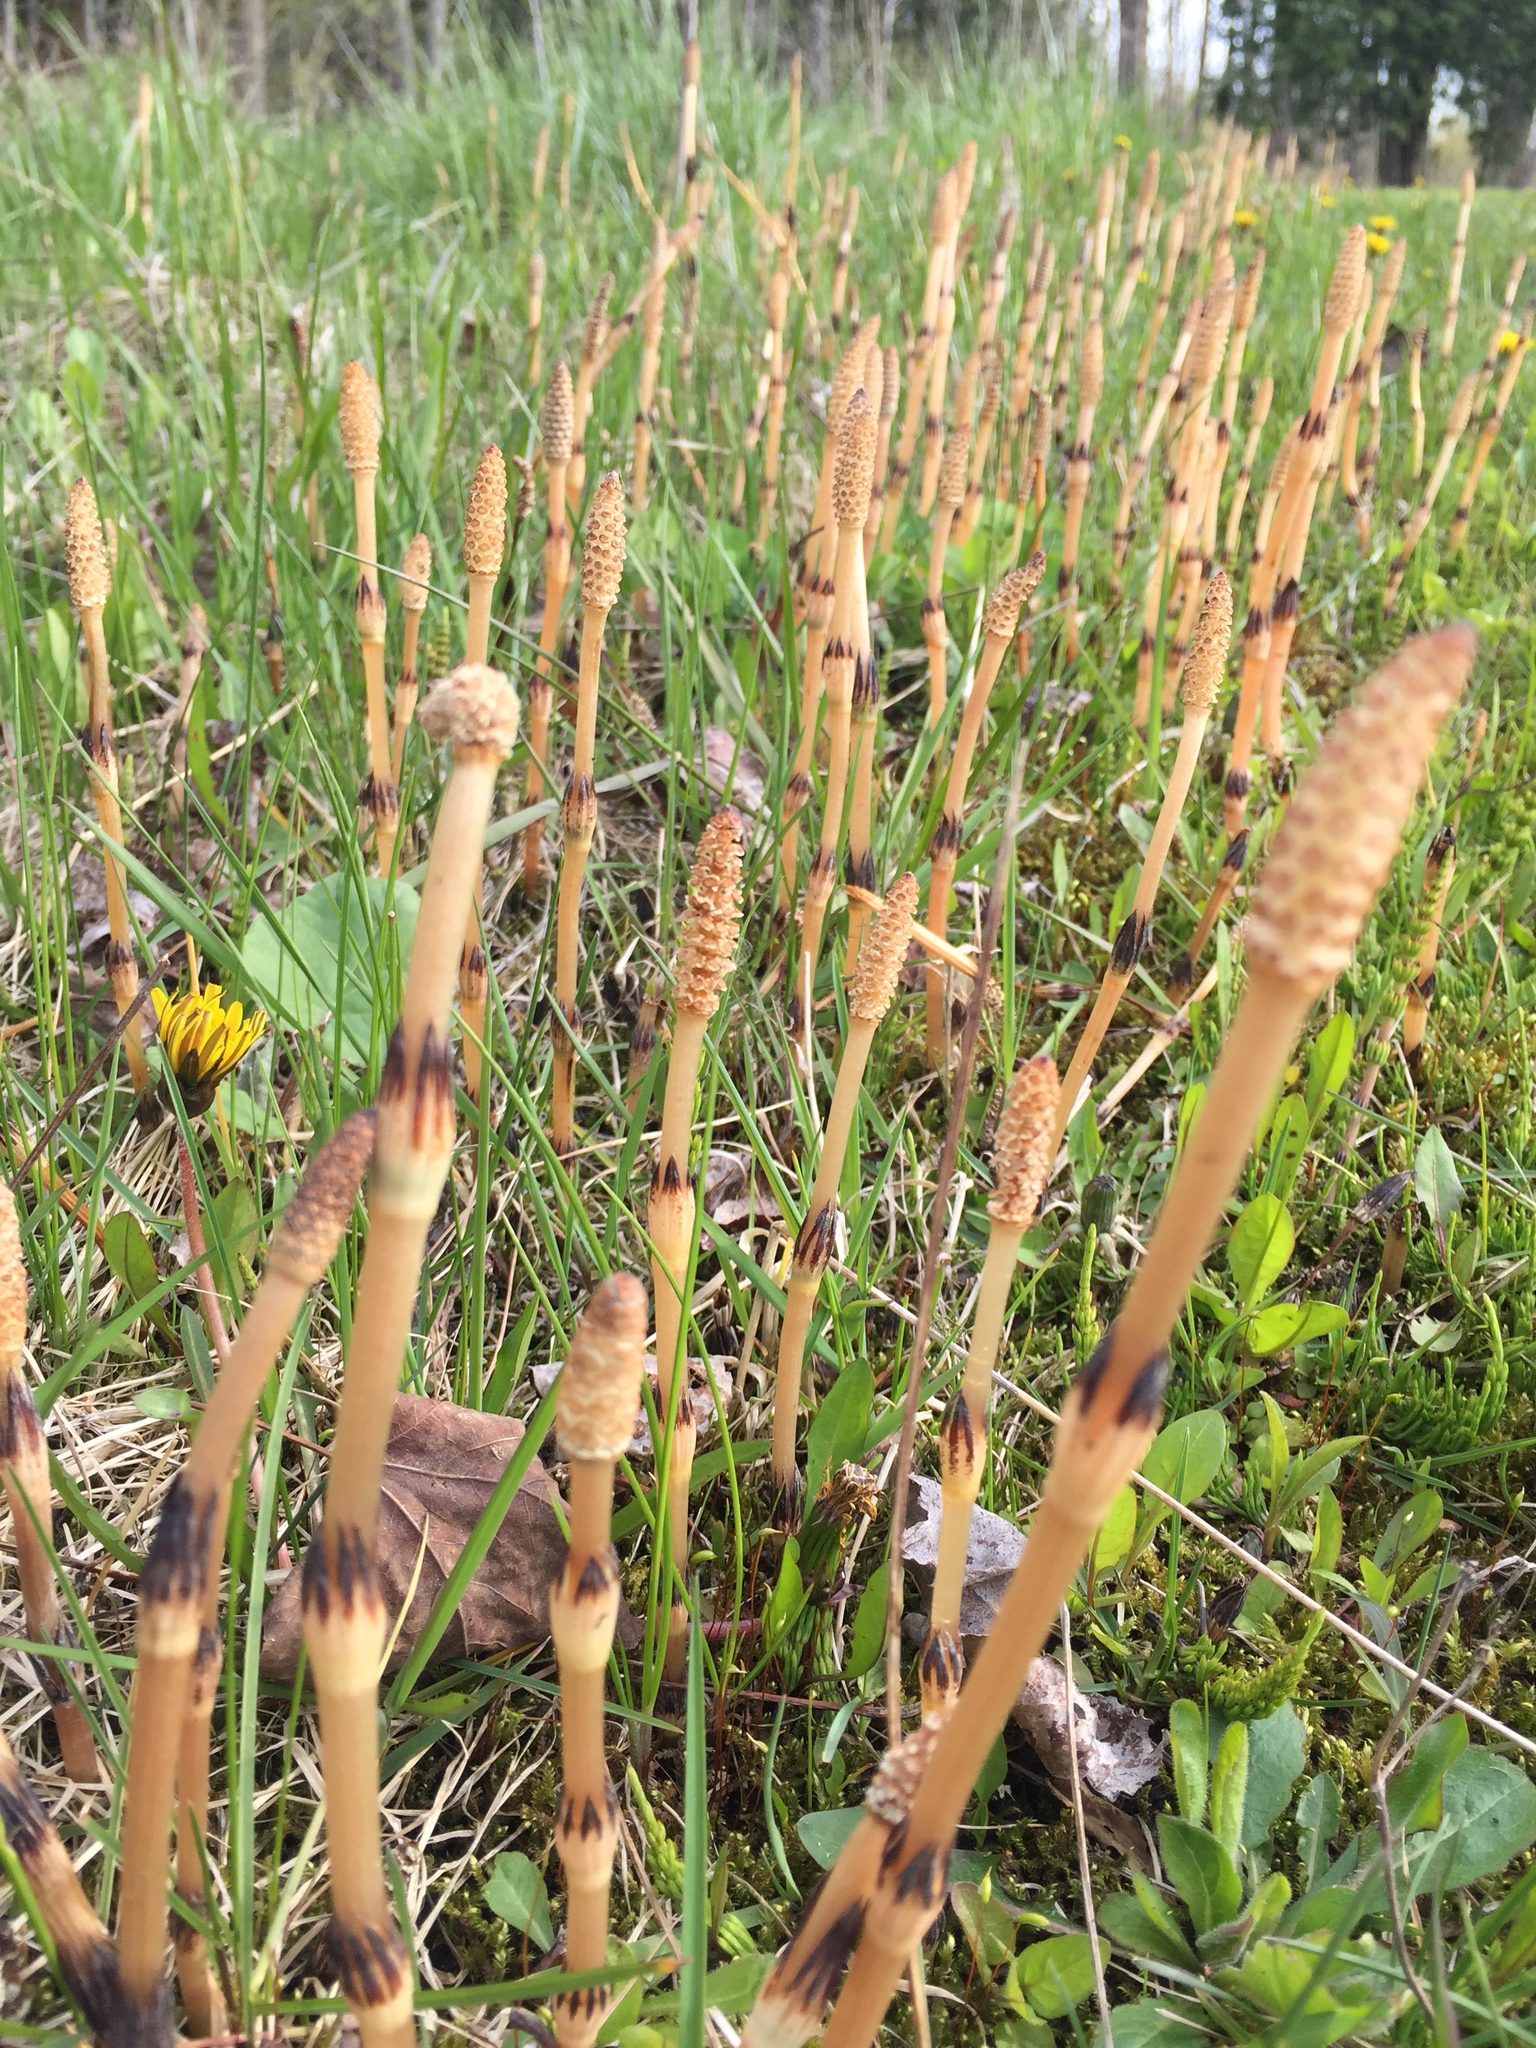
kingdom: Plantae
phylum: Tracheophyta
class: Polypodiopsida
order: Equisetales
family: Equisetaceae
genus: Equisetum
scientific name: Equisetum arvense
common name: Field horsetail
